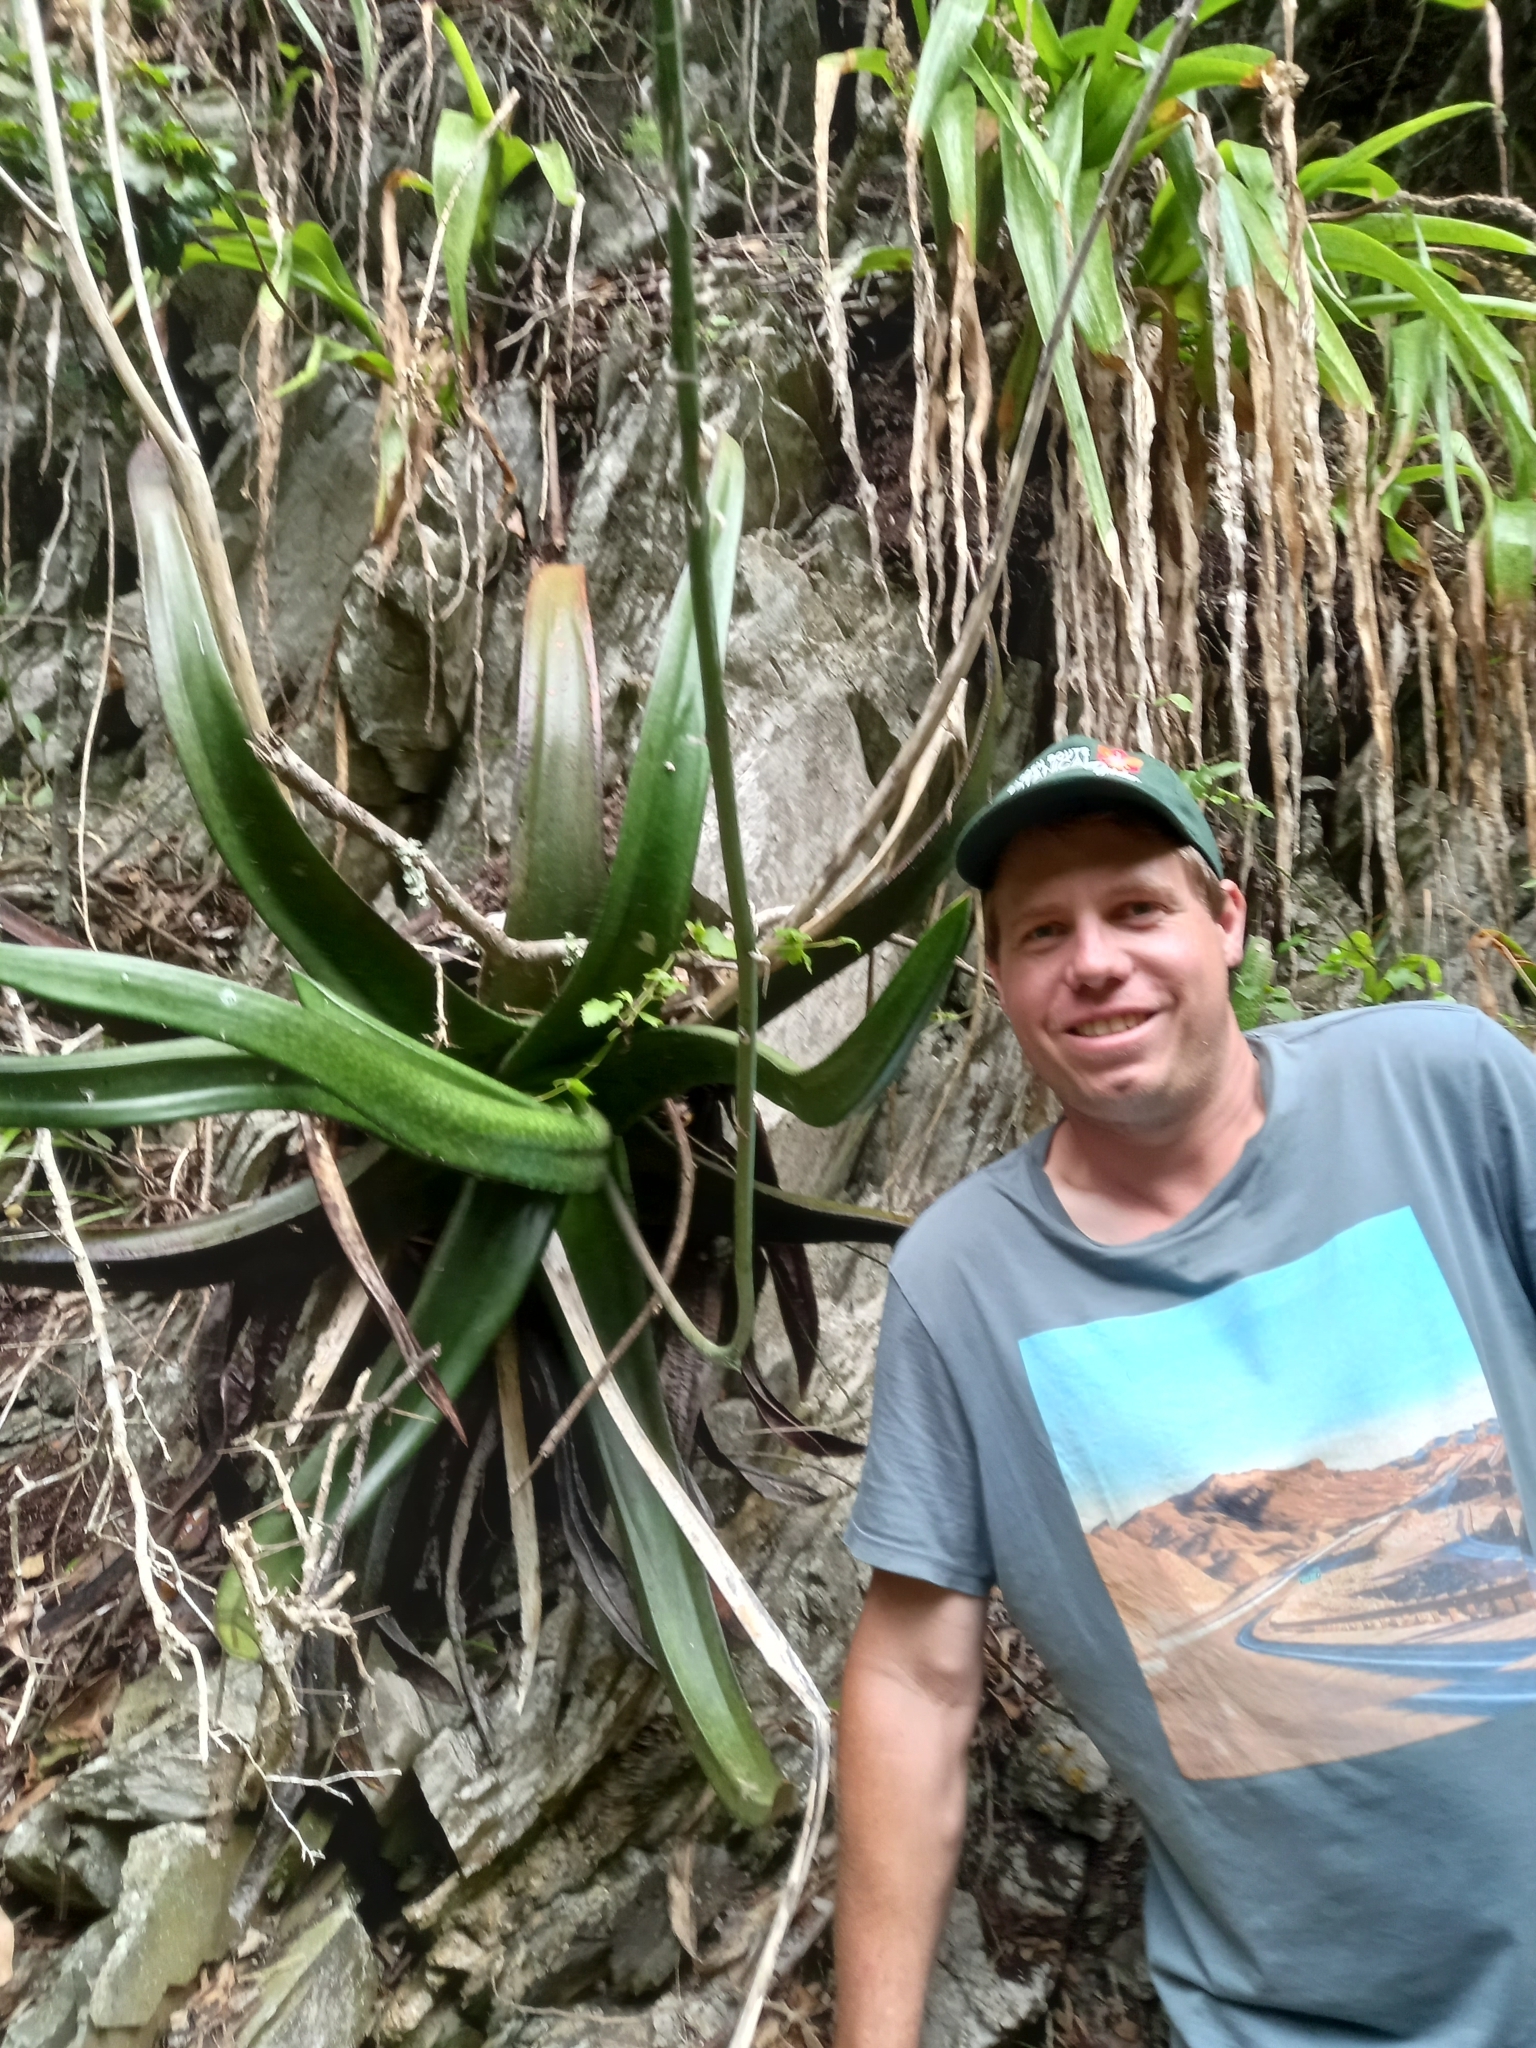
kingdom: Plantae
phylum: Tracheophyta
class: Liliopsida
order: Asparagales
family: Asphodelaceae
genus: Gasteria
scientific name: Gasteria acinacifolia
